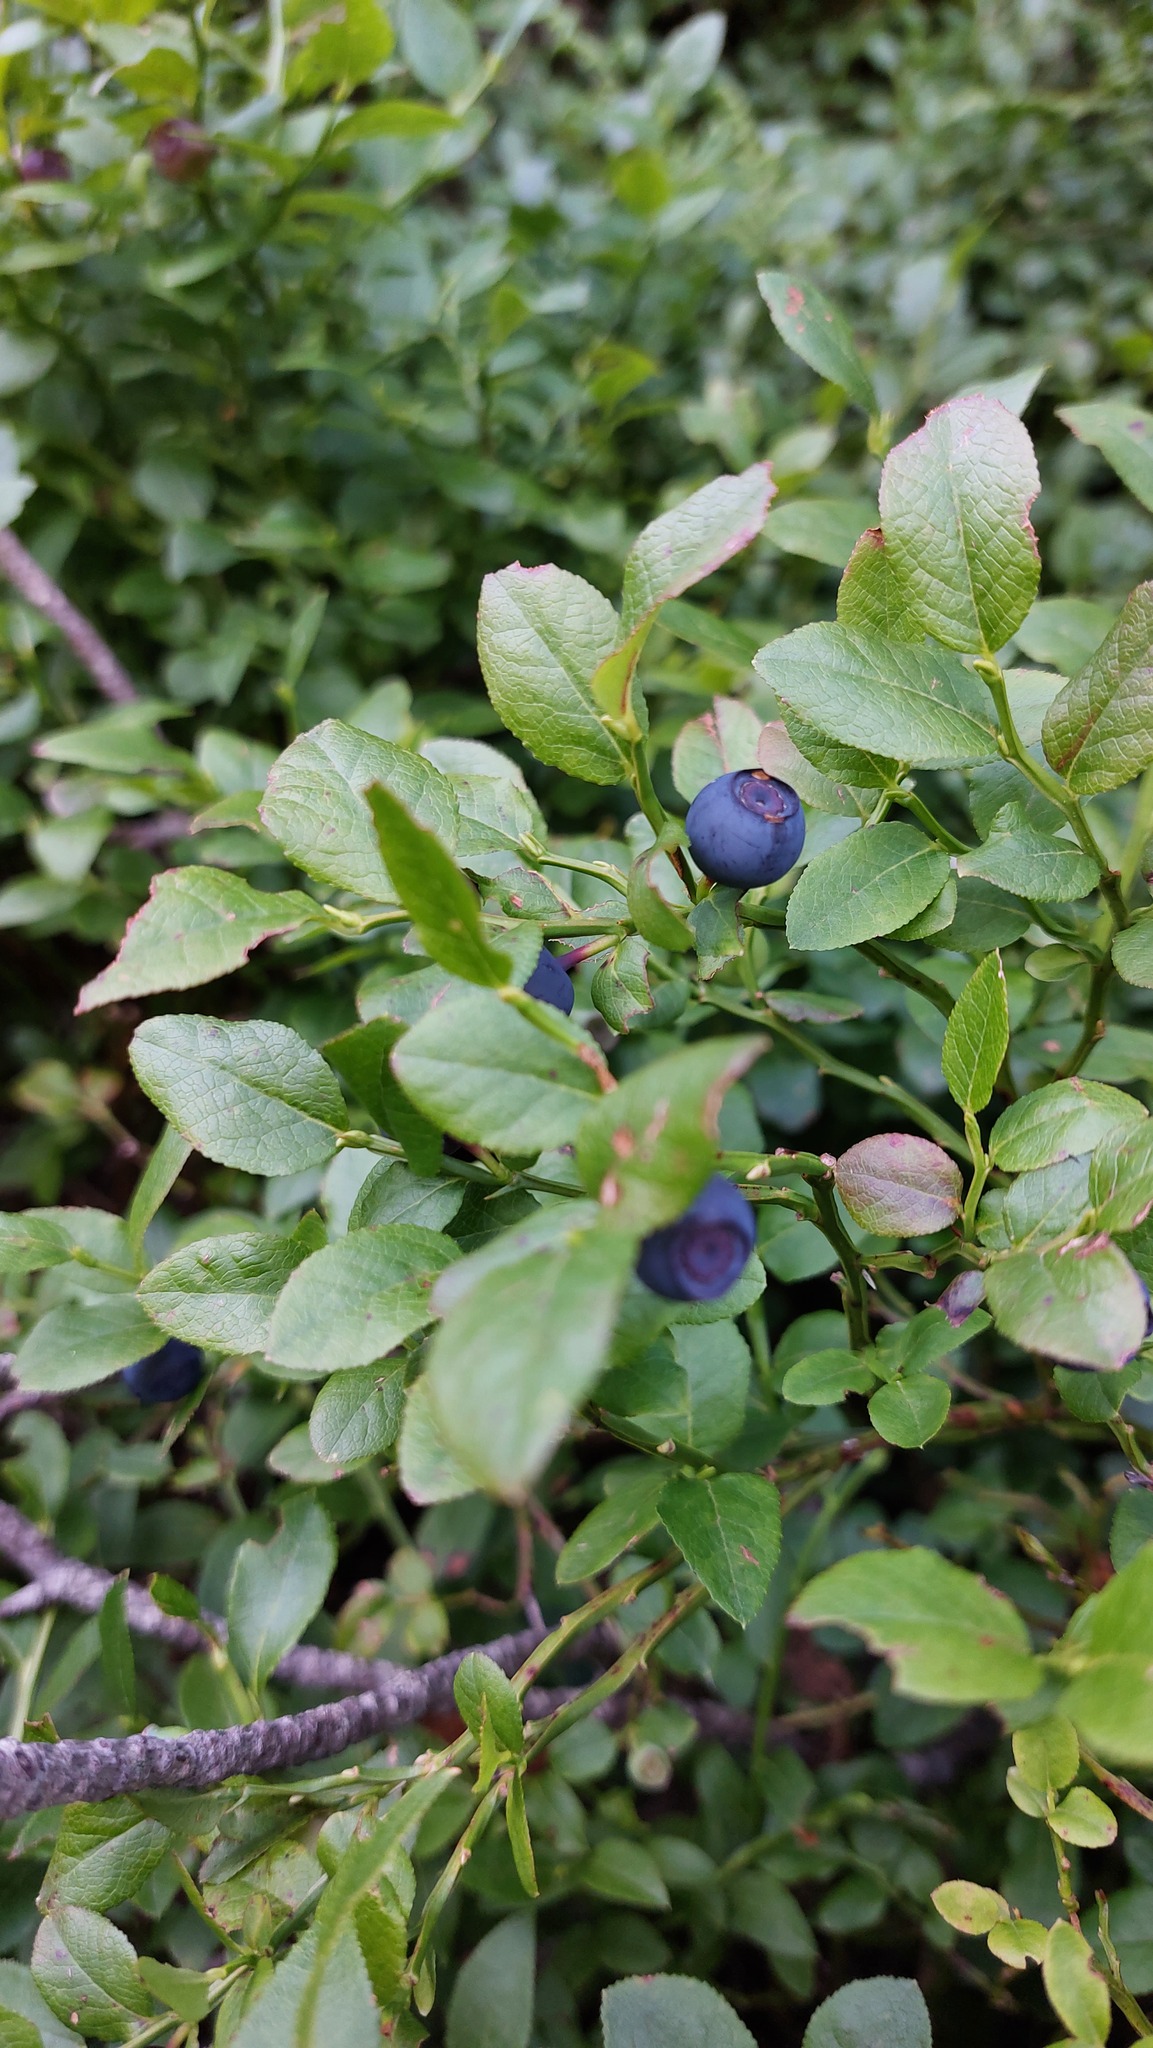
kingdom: Plantae
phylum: Tracheophyta
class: Magnoliopsida
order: Ericales
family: Ericaceae
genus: Vaccinium
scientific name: Vaccinium myrtillus
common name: Bilberry
